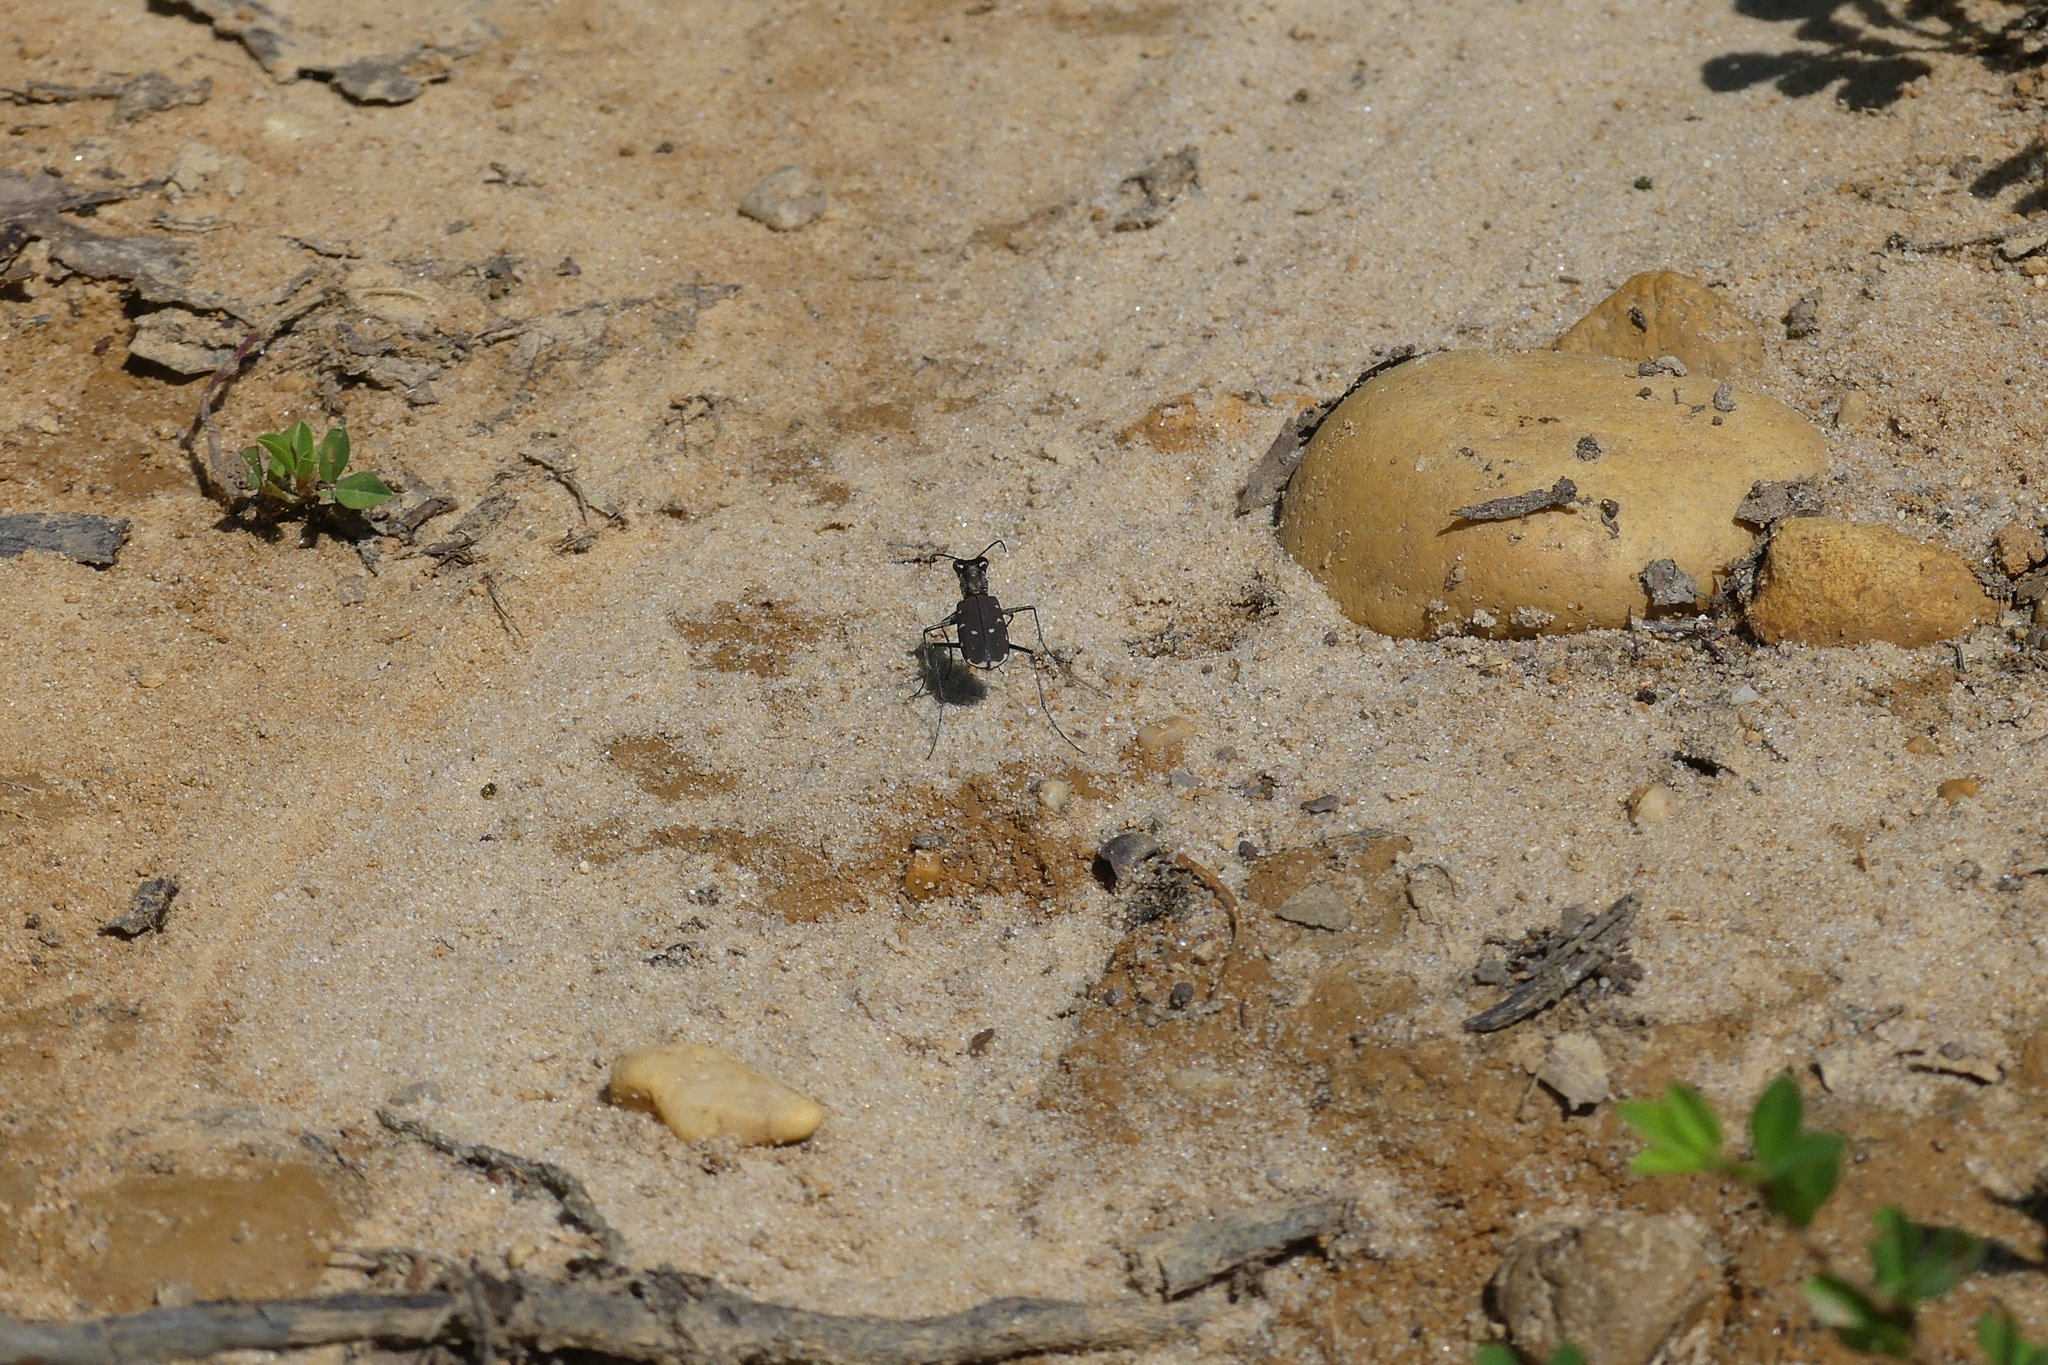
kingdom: Animalia
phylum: Arthropoda
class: Insecta
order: Coleoptera
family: Carabidae
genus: Cicindela
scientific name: Cicindela rufiventris
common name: Eastern red-bellied tiger beetle
